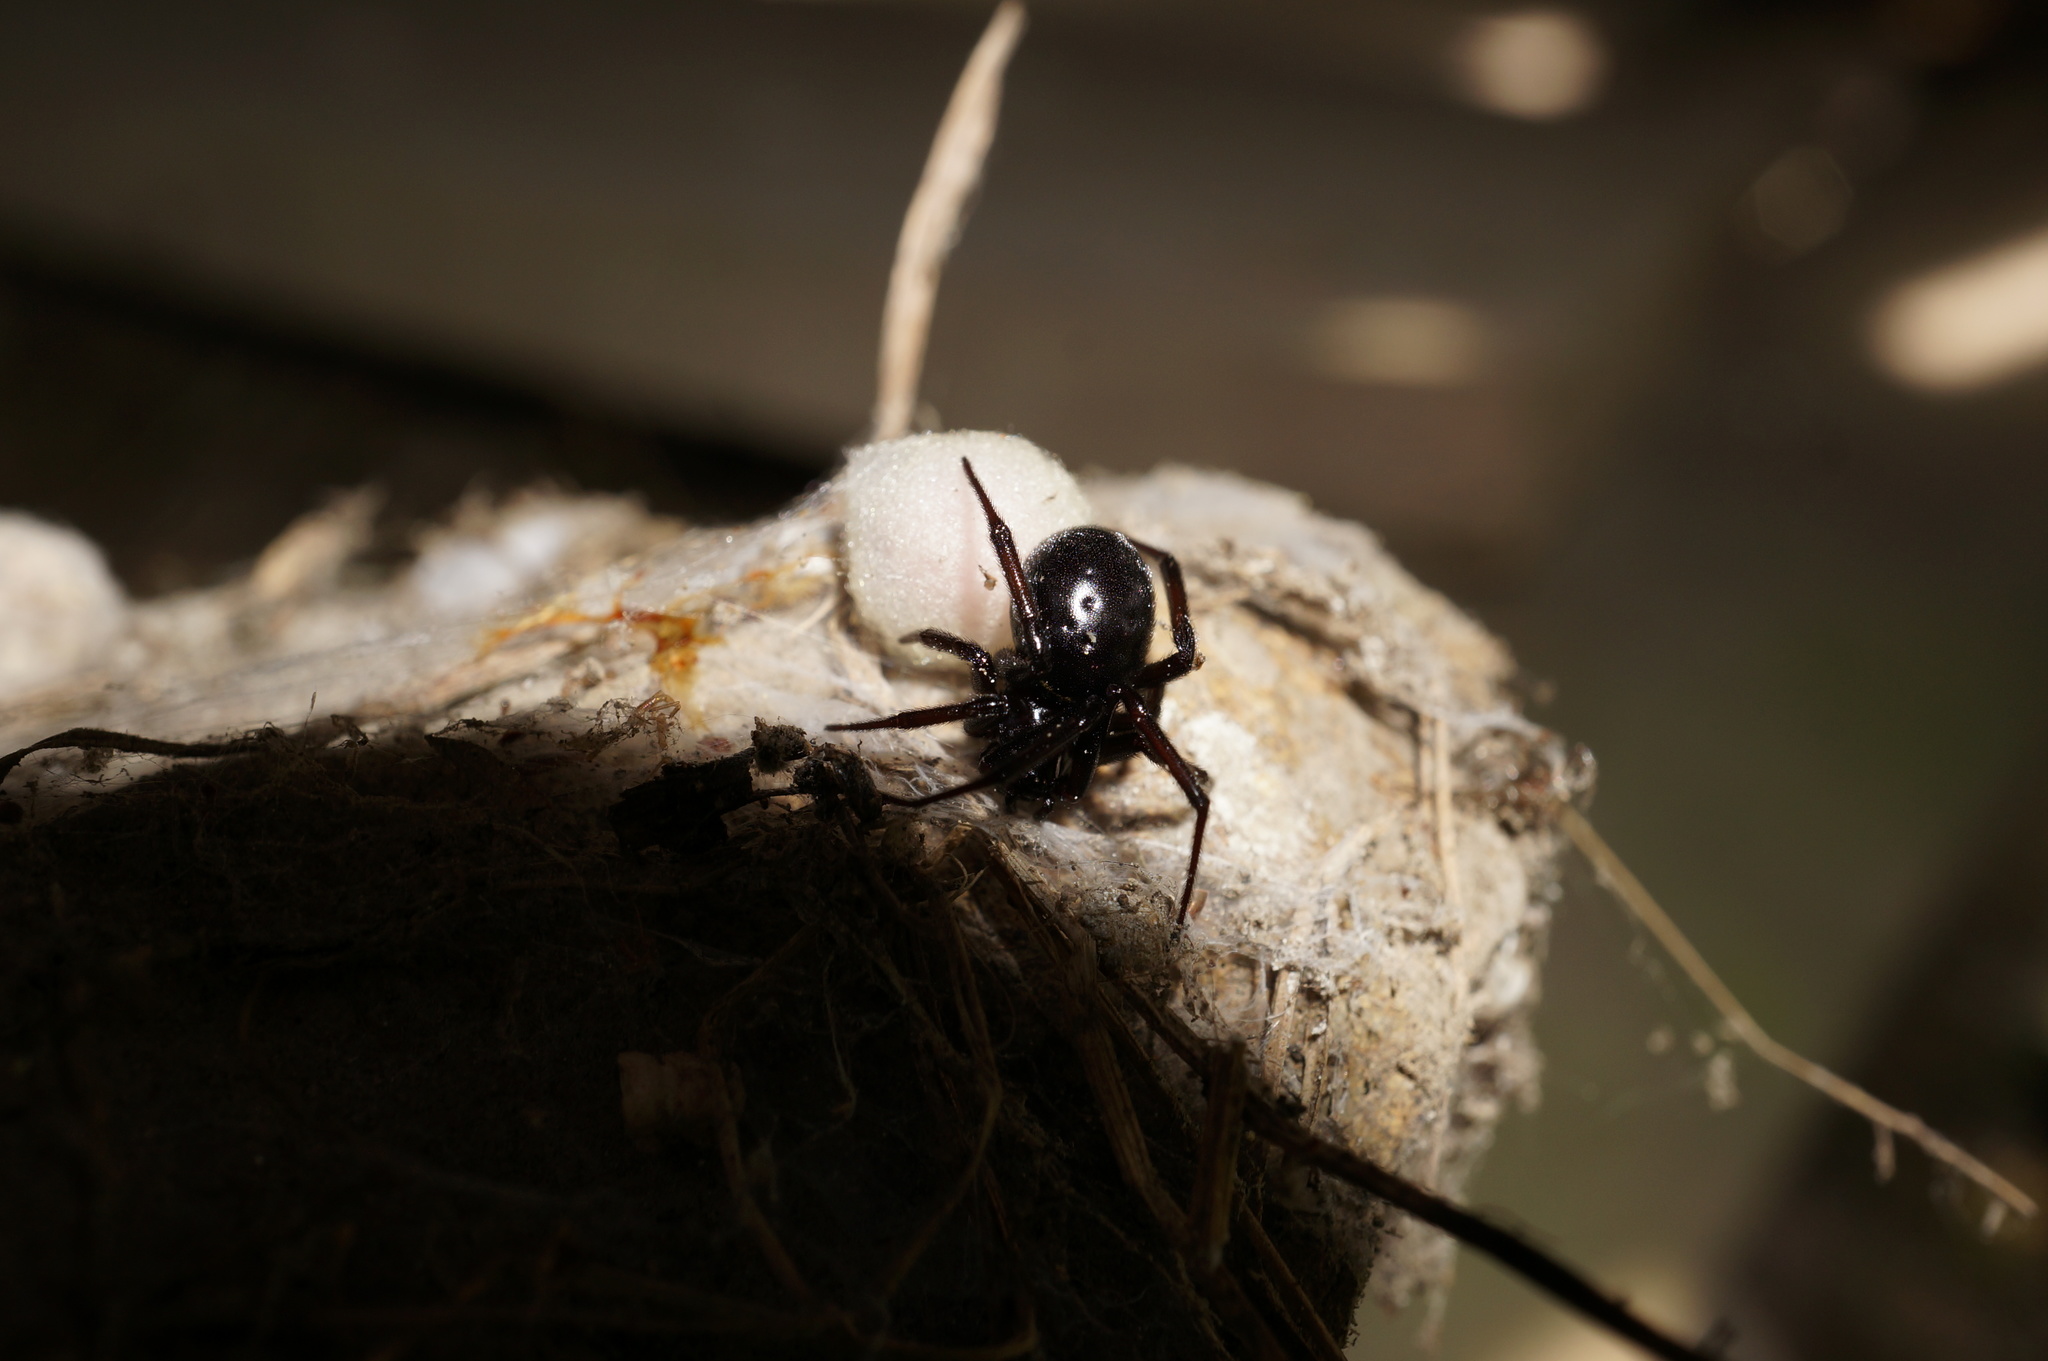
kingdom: Animalia
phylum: Arthropoda
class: Arachnida
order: Araneae
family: Theridiidae
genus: Steatoda
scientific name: Steatoda capensis
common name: Cobweb weaver
